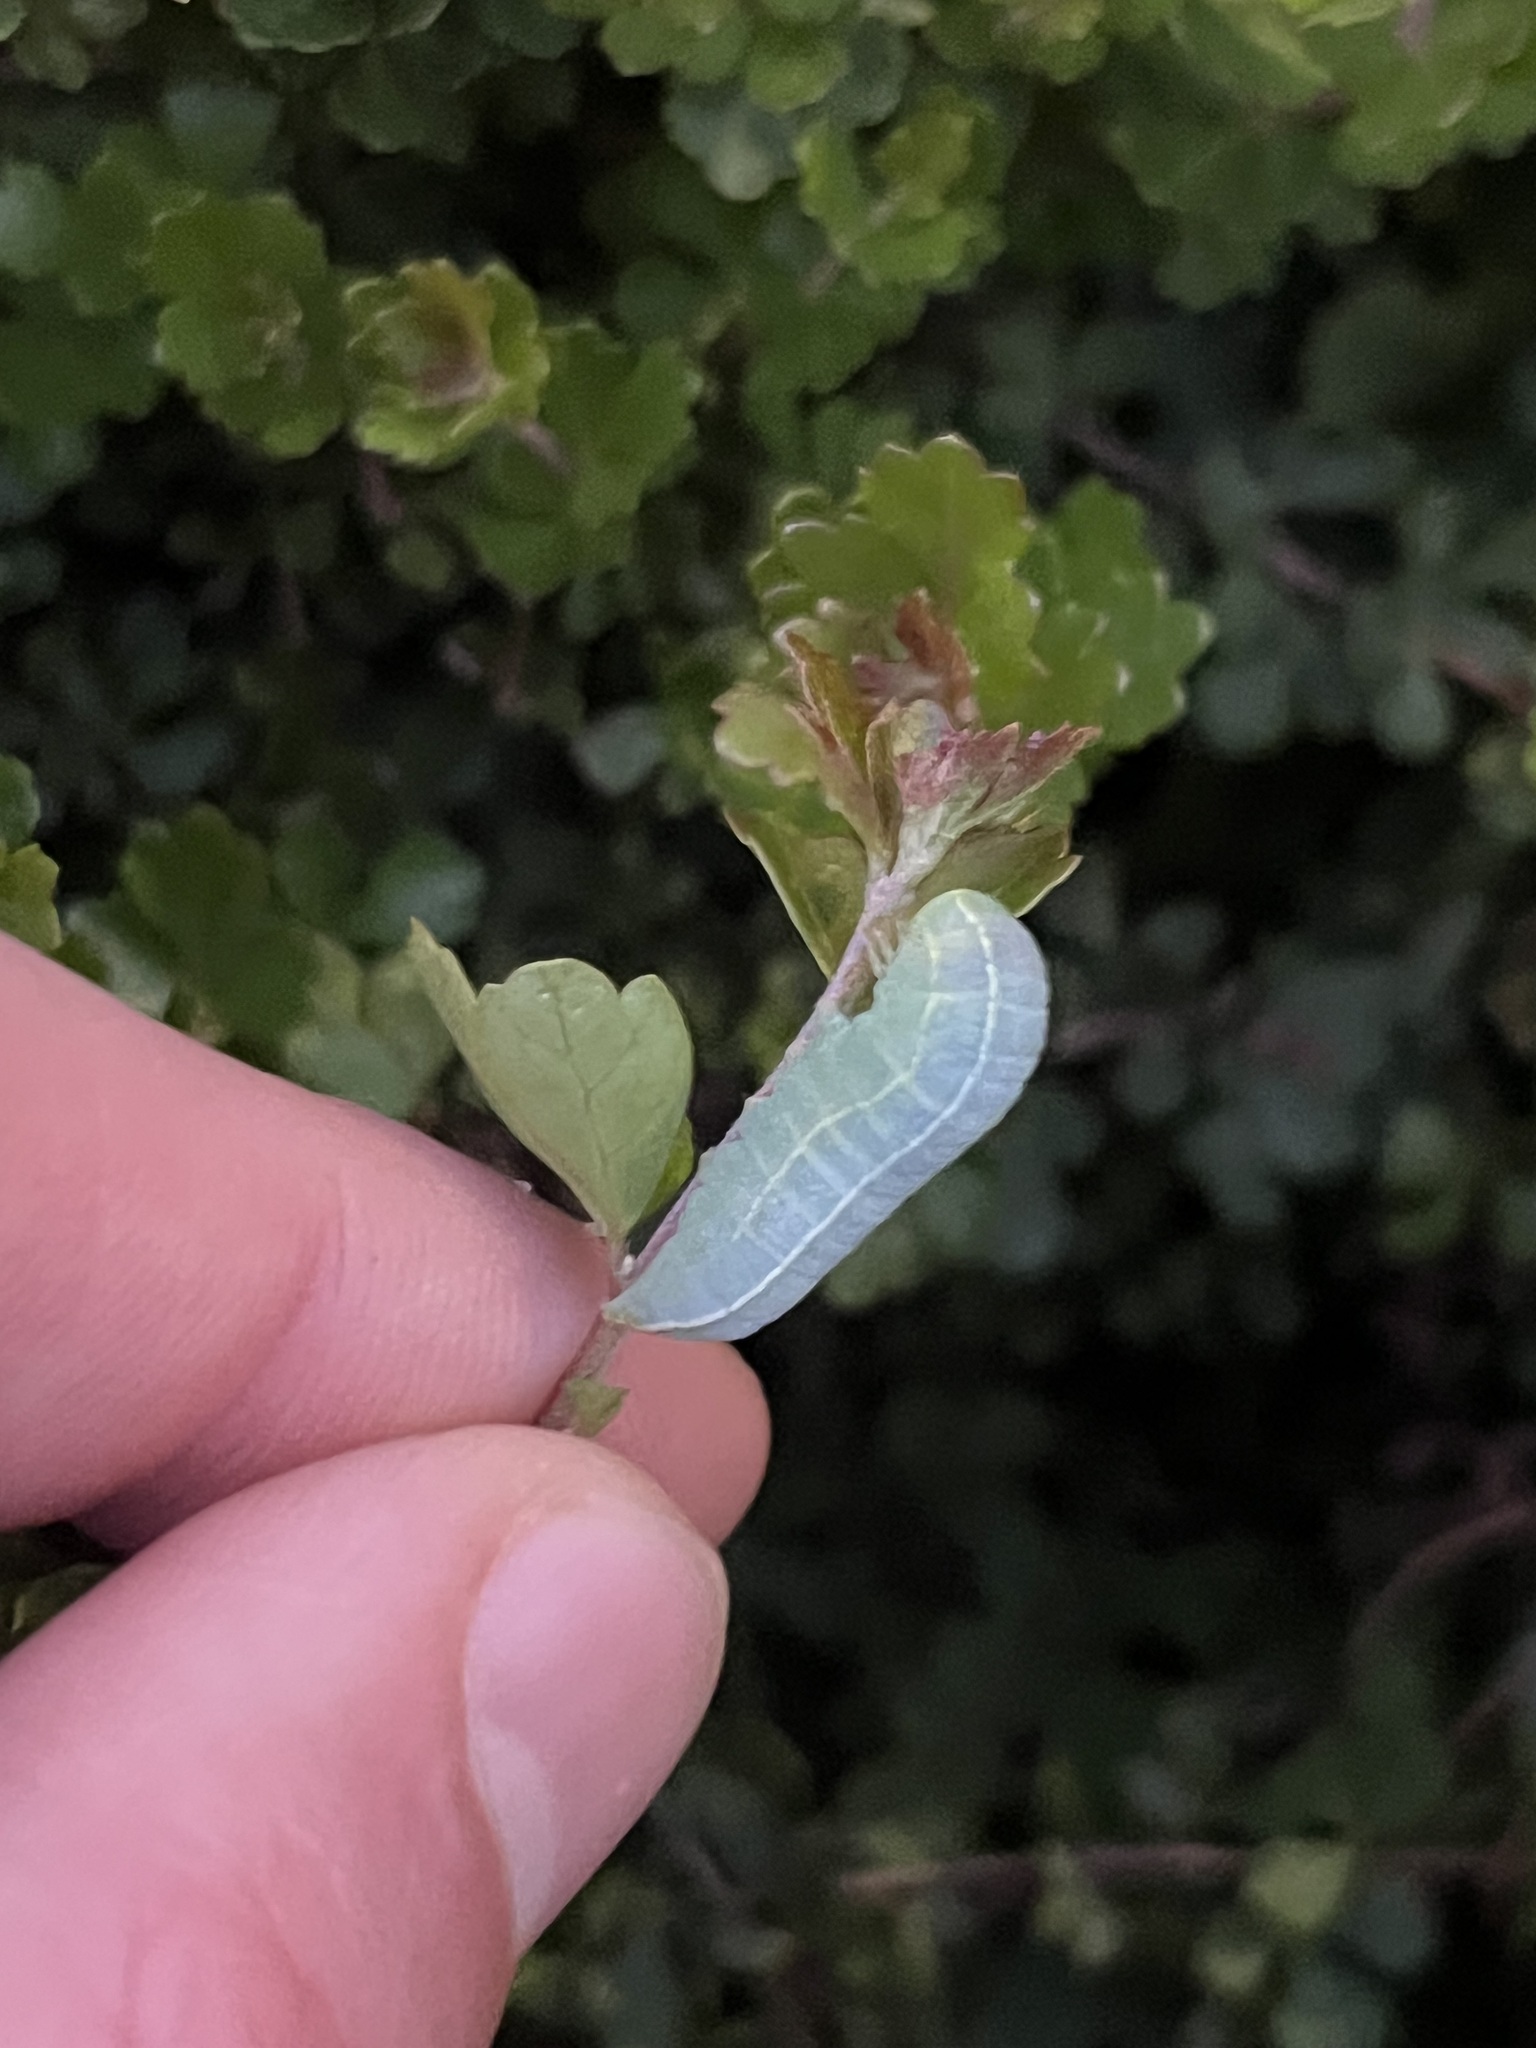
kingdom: Animalia
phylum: Arthropoda
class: Insecta
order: Lepidoptera
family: Euteliidae
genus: Eutelia
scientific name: Eutelia adulatrix
